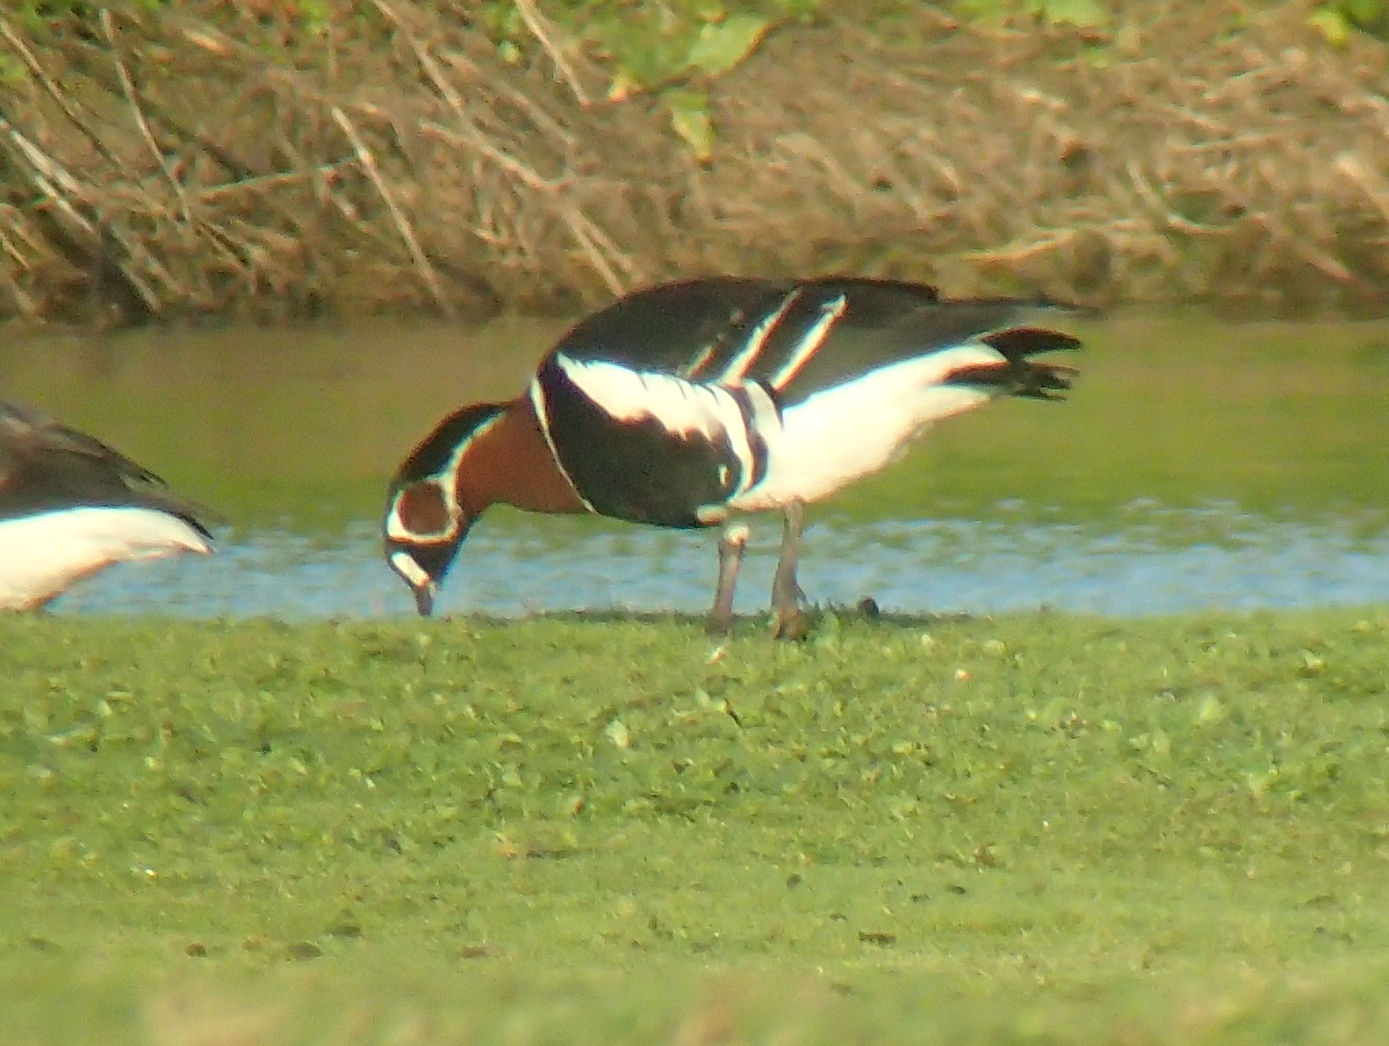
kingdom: Animalia
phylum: Chordata
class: Aves
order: Anseriformes
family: Anatidae
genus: Branta
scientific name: Branta ruficollis
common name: Red-breasted goose
